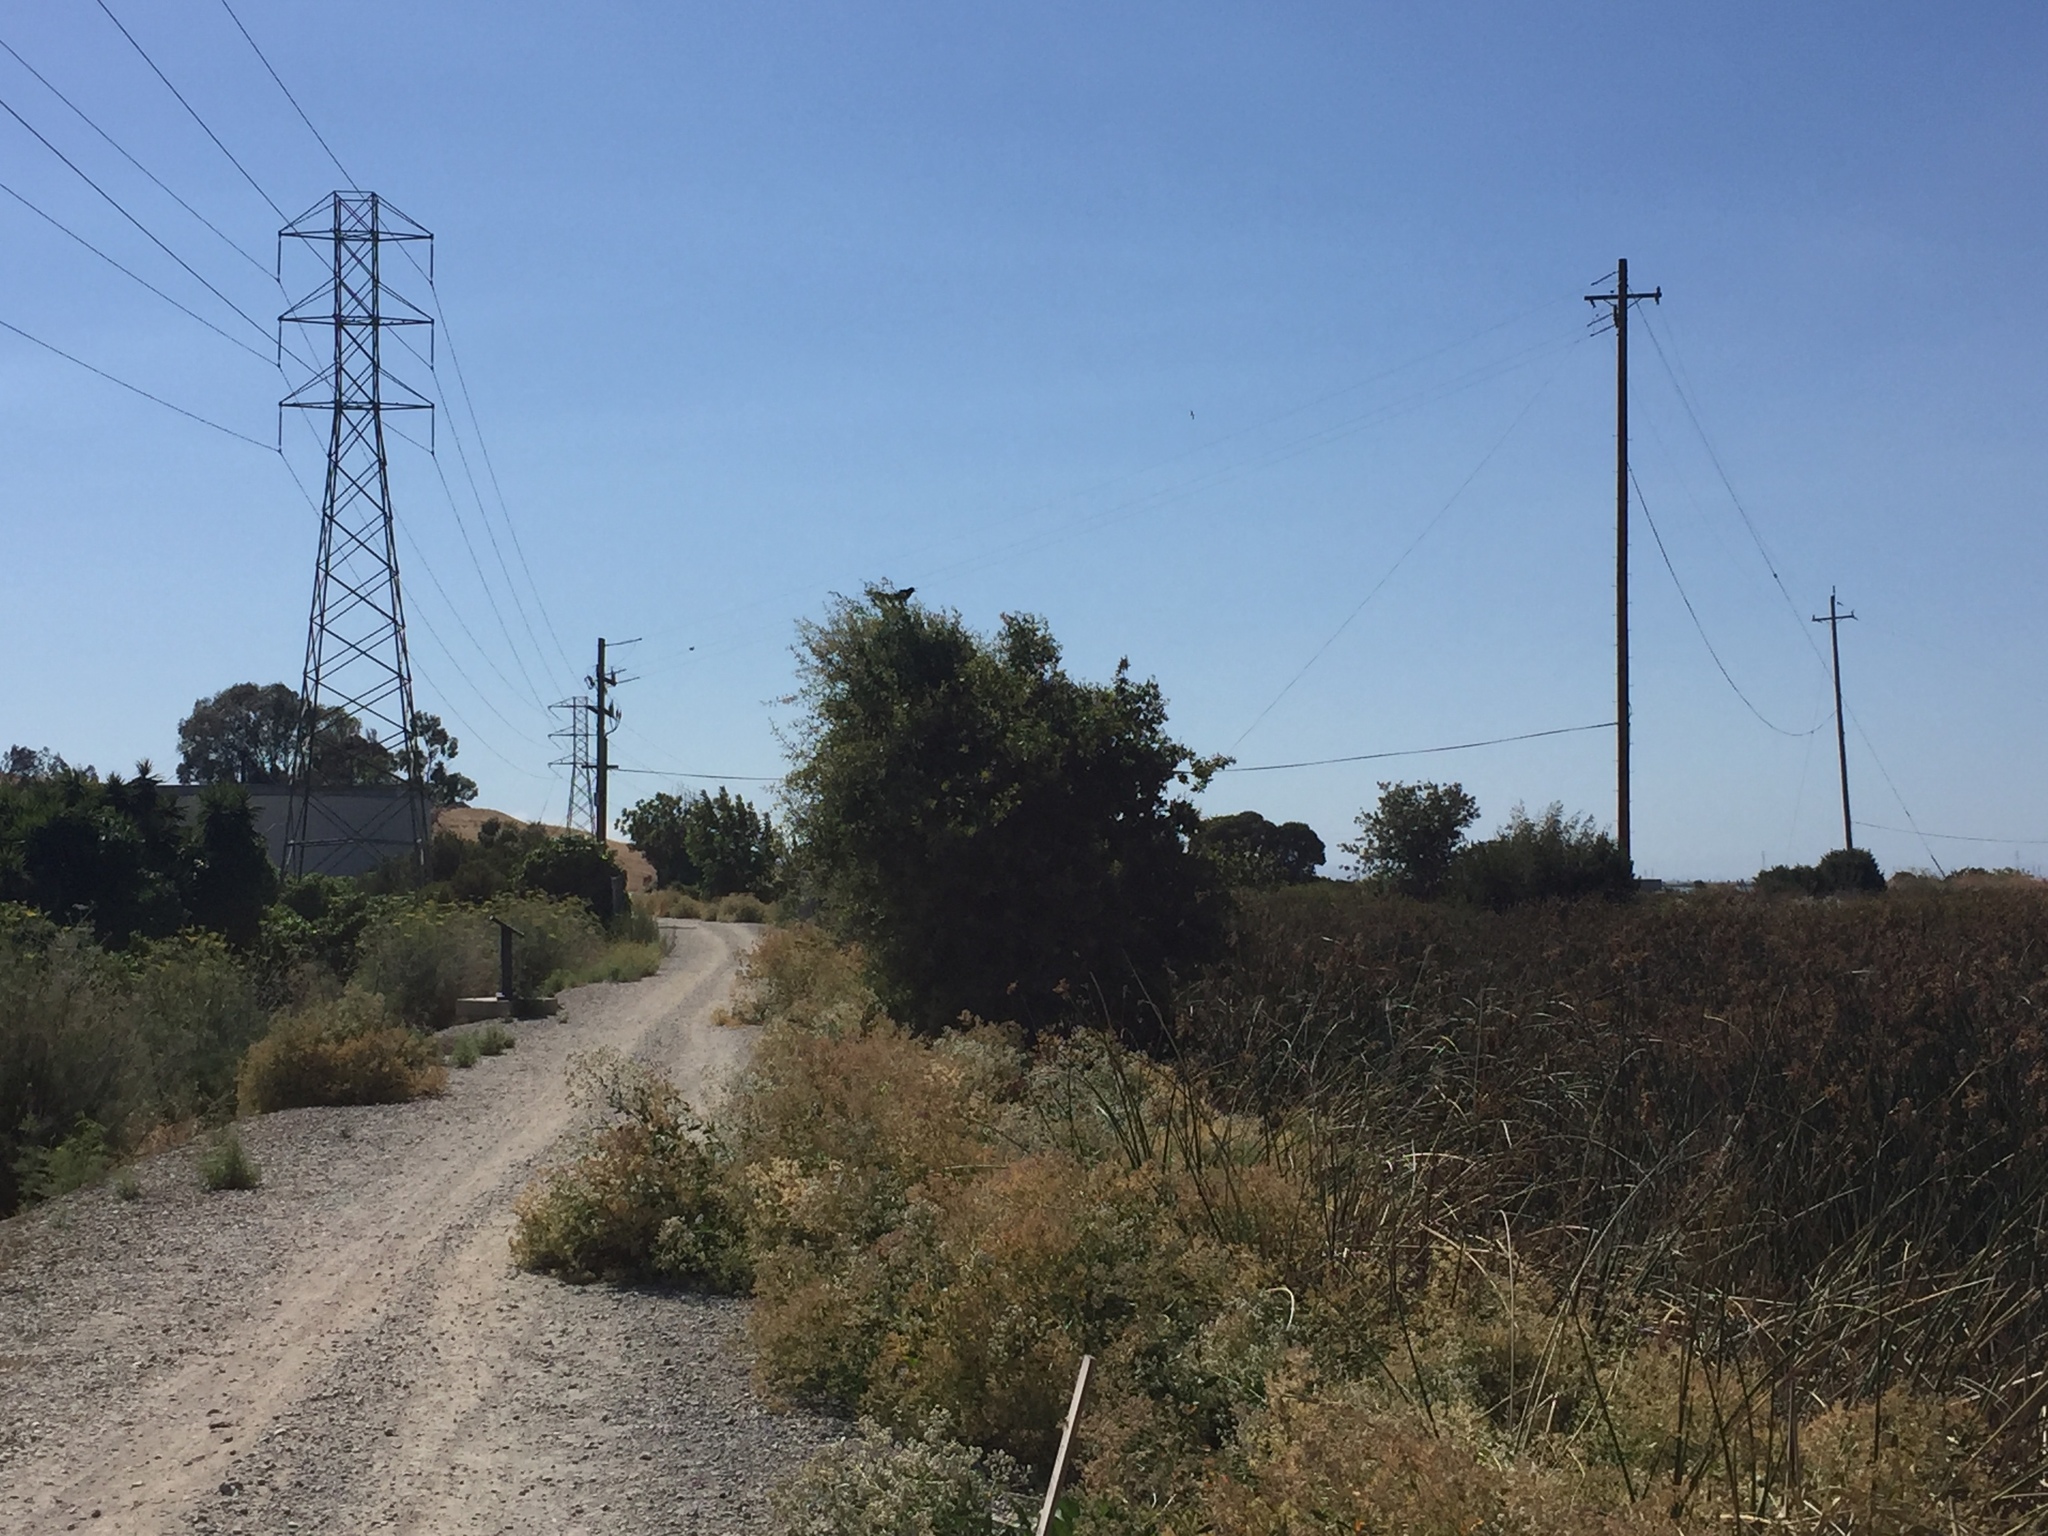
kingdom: Animalia
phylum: Chordata
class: Aves
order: Passeriformes
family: Icteridae
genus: Quiscalus
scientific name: Quiscalus mexicanus
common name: Great-tailed grackle
